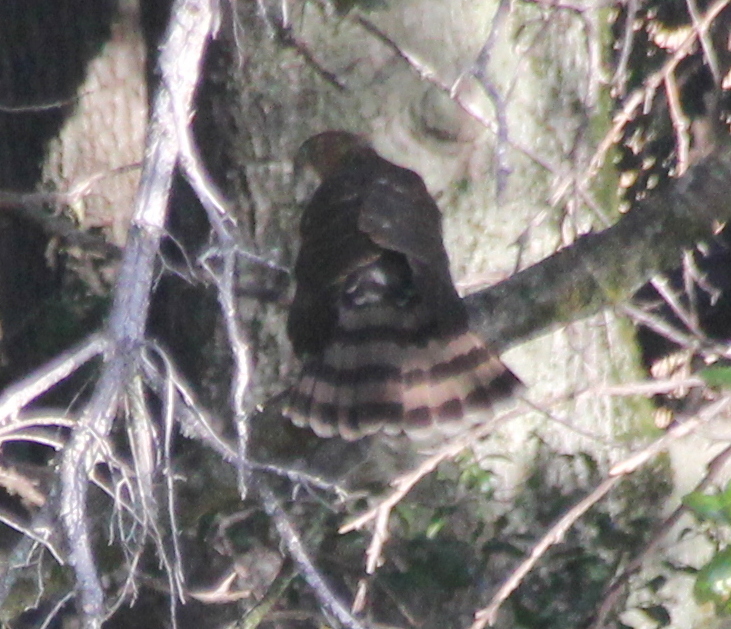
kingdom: Animalia
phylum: Chordata
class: Aves
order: Accipitriformes
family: Accipitridae
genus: Accipiter
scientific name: Accipiter cooperii
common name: Cooper's hawk
